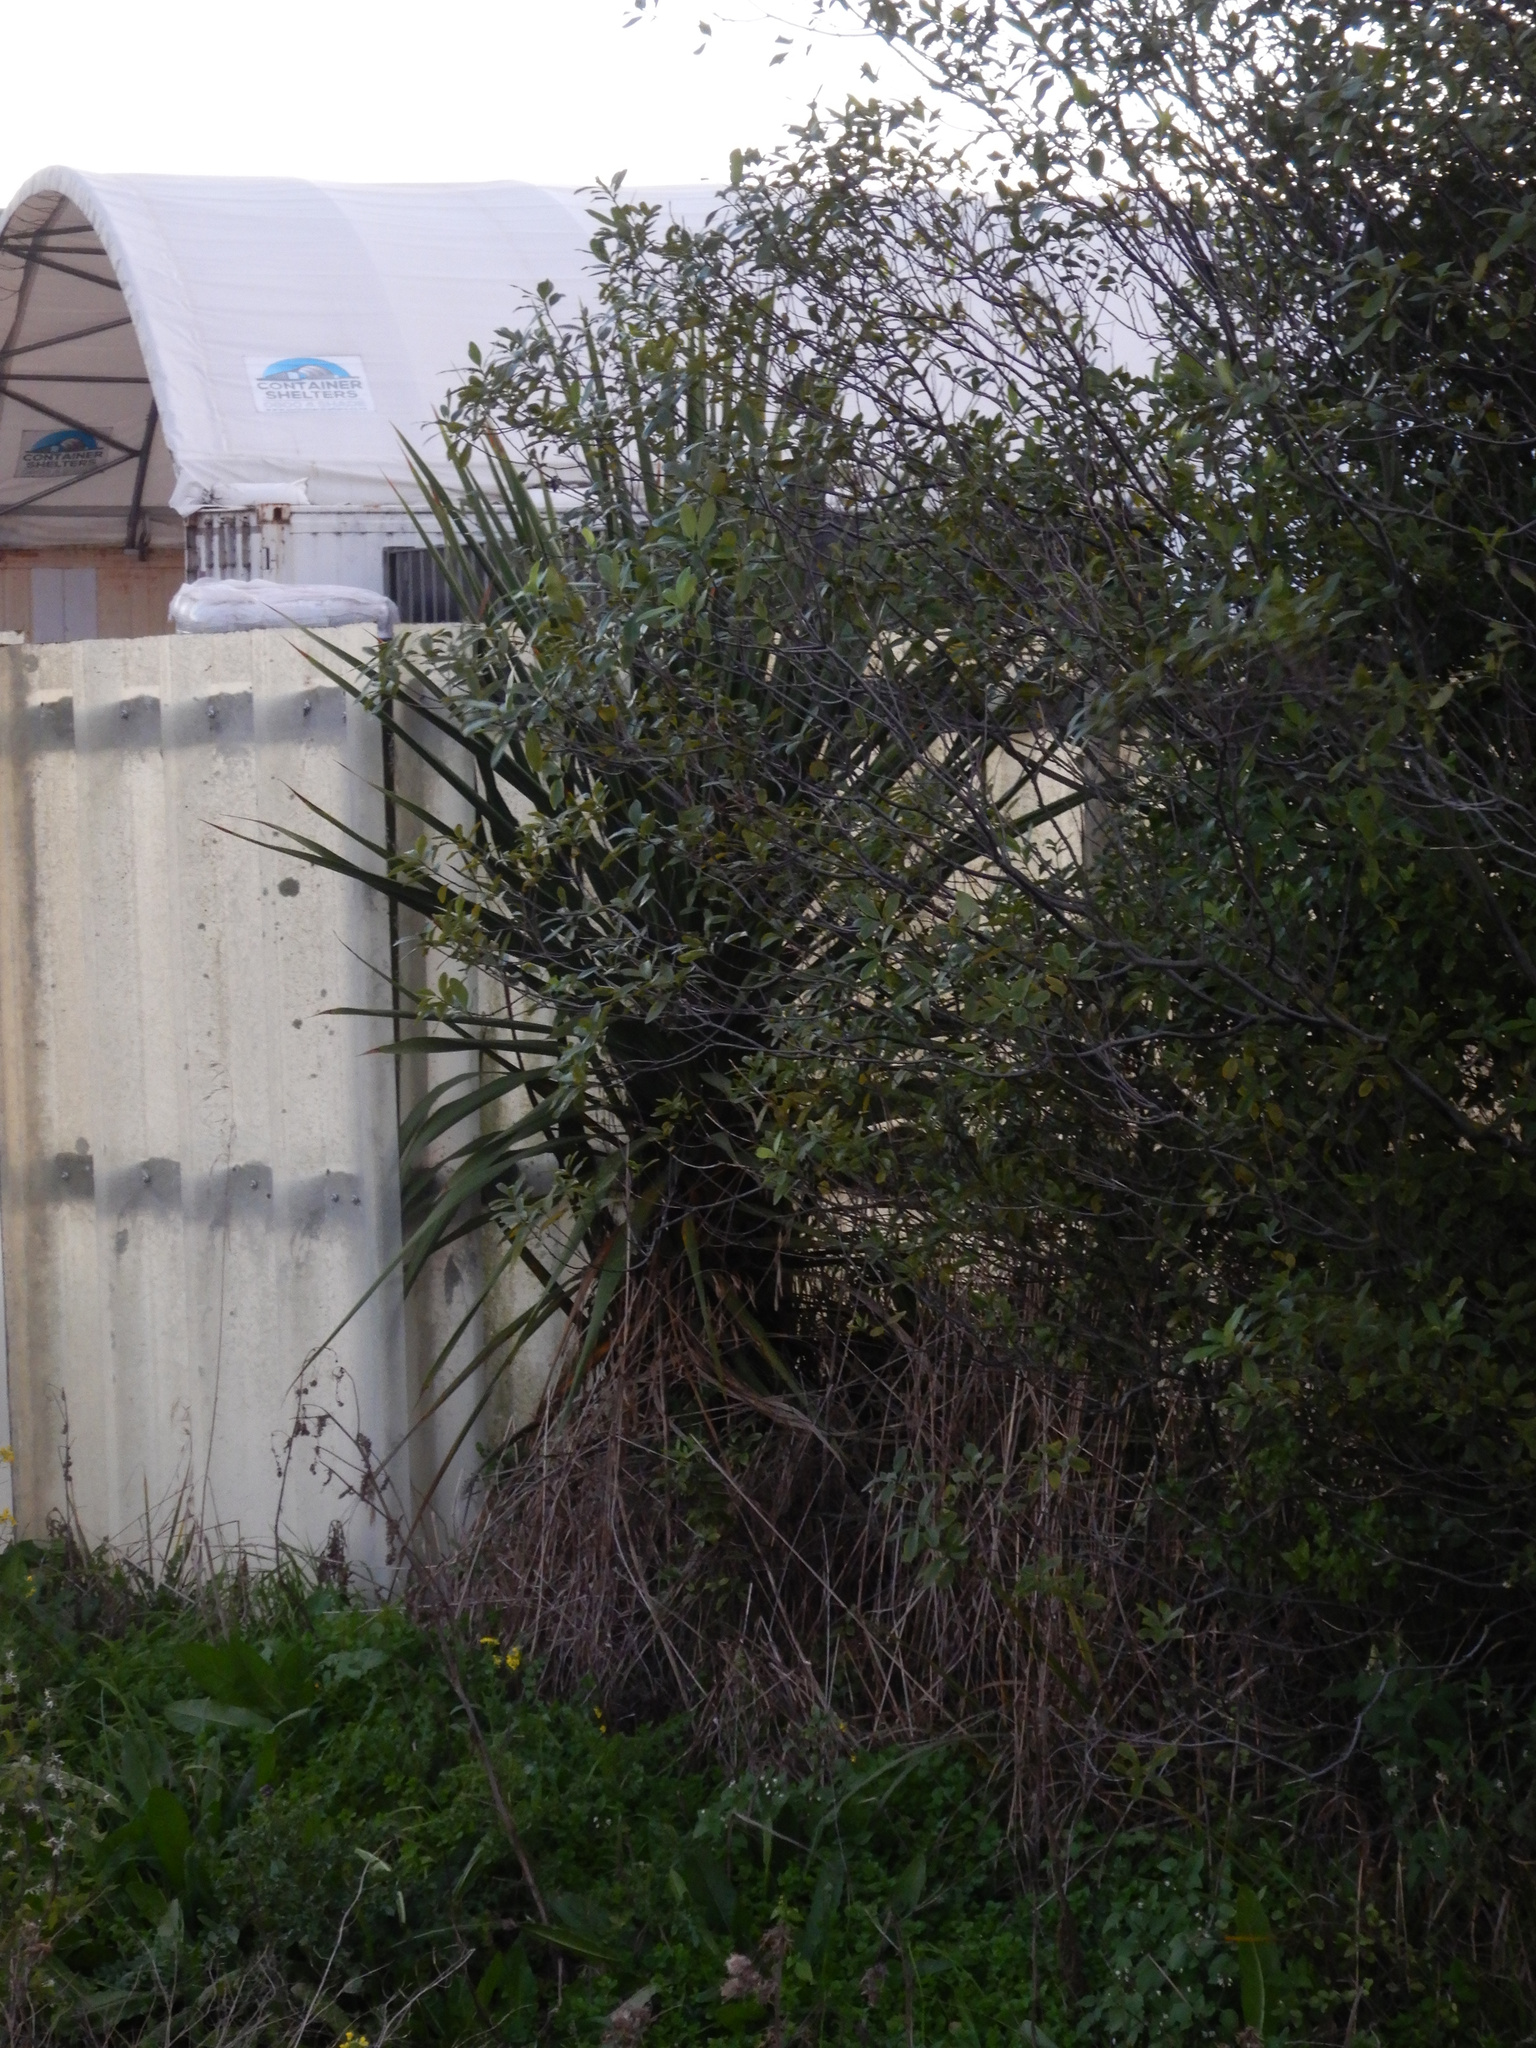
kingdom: Plantae
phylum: Tracheophyta
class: Liliopsida
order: Asparagales
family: Asparagaceae
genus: Cordyline
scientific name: Cordyline australis
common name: Cabbage-palm
